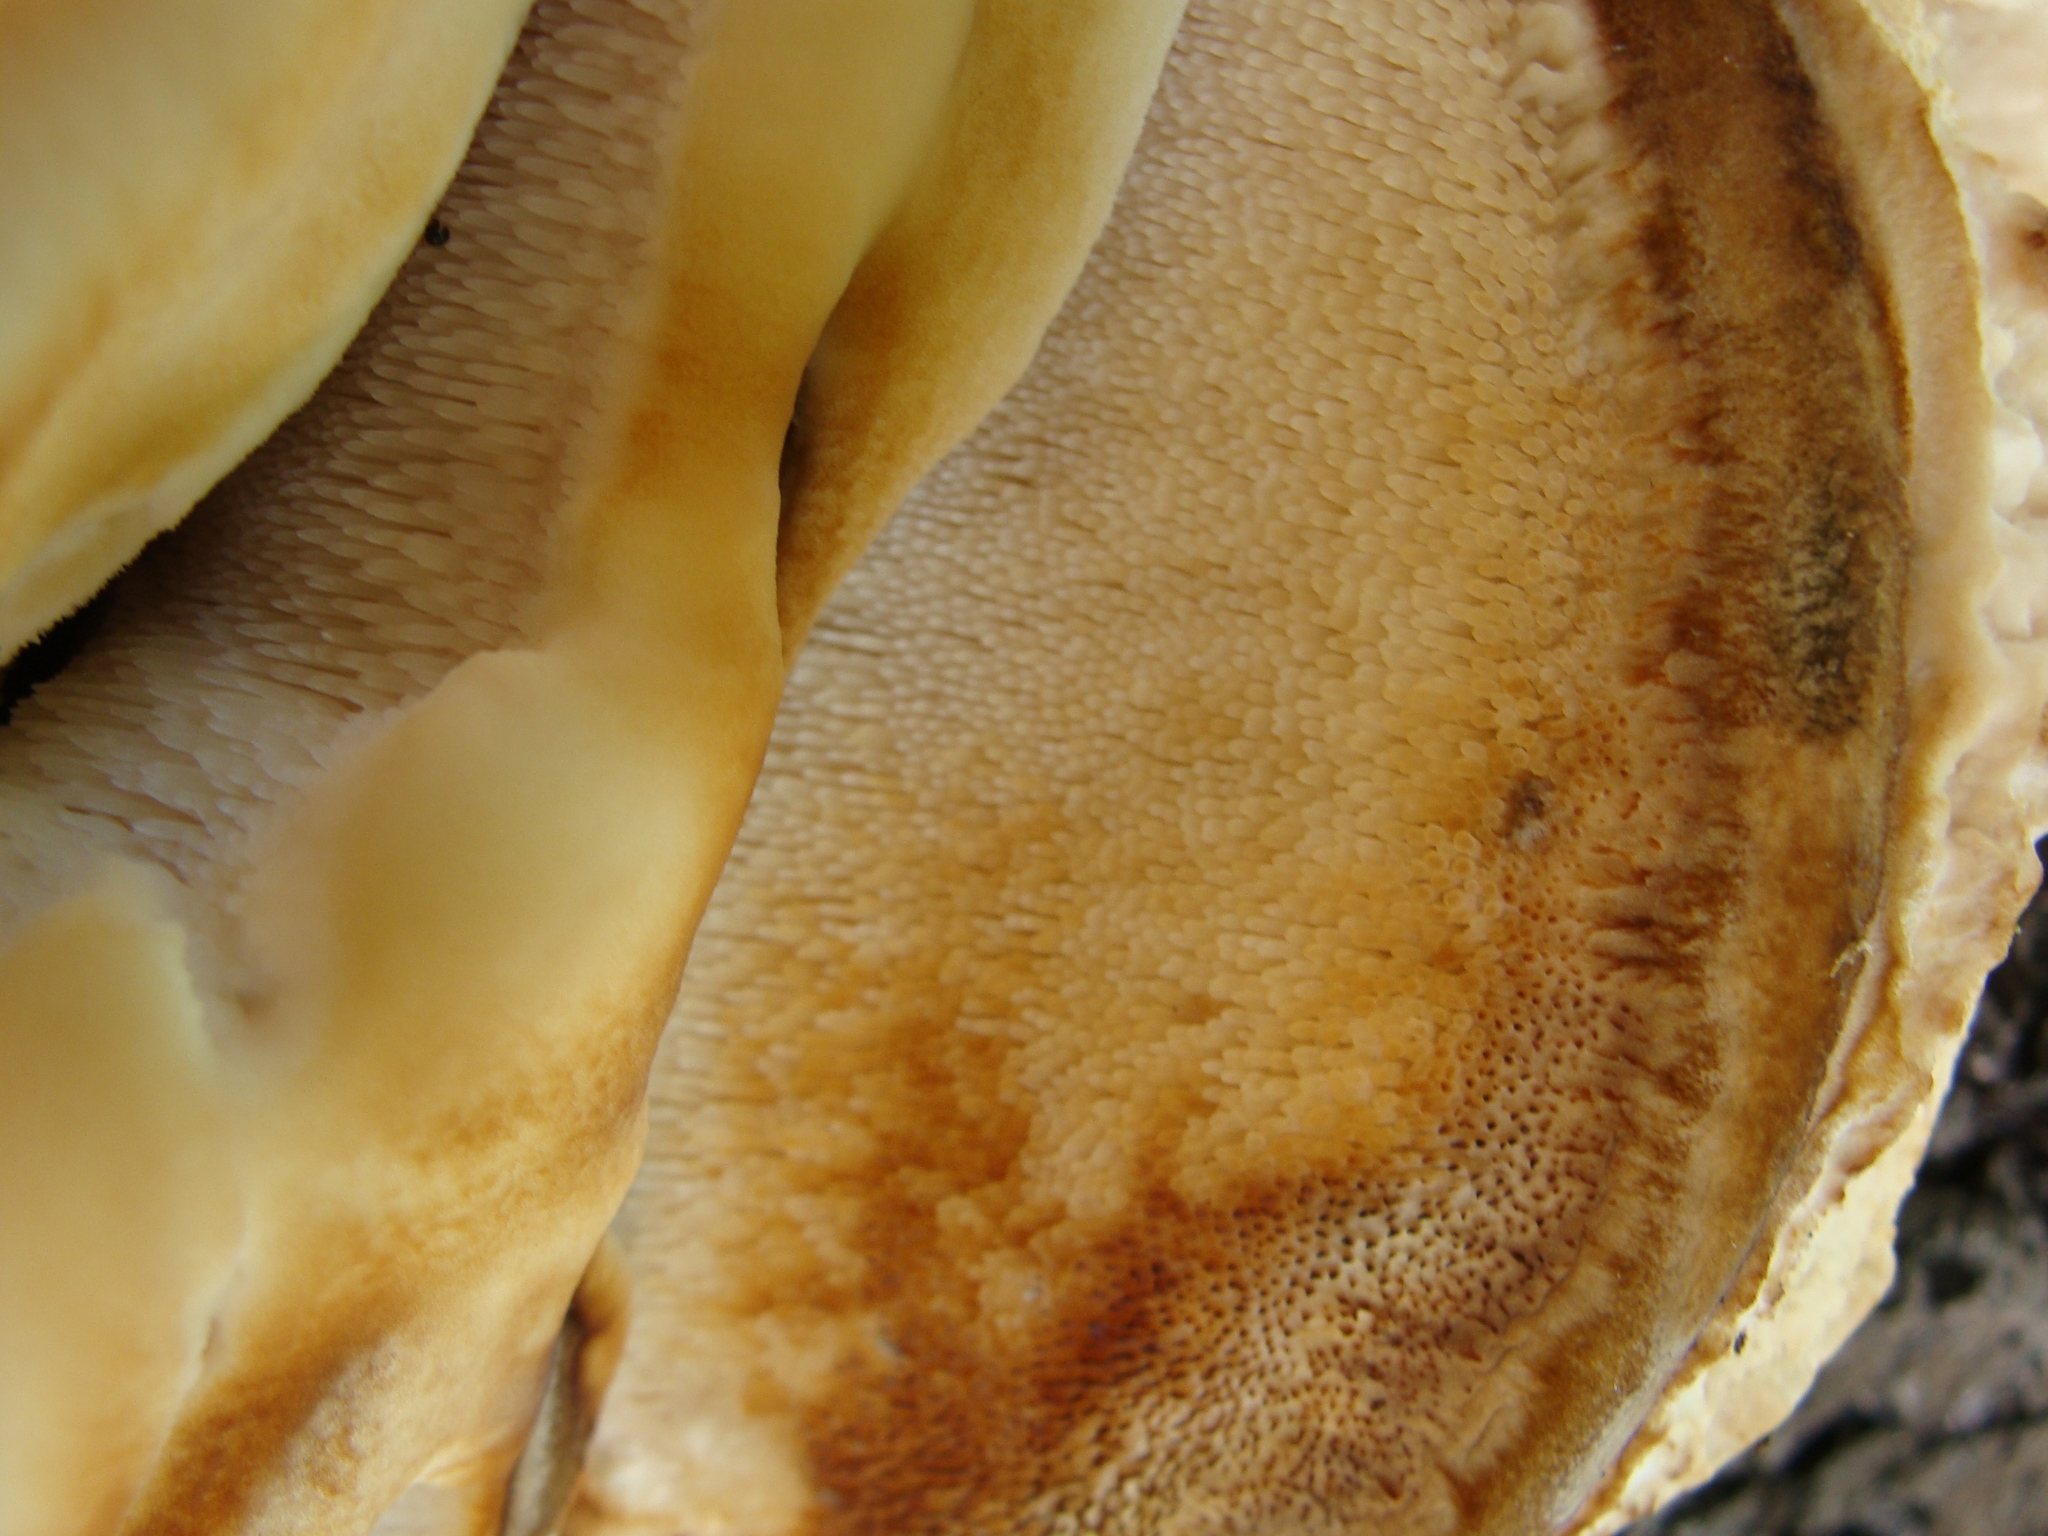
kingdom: Fungi
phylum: Basidiomycota
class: Agaricomycetes
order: Polyporales
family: Meruliaceae
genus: Climacodon
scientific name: Climacodon septentrionalis
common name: Northern tooth
